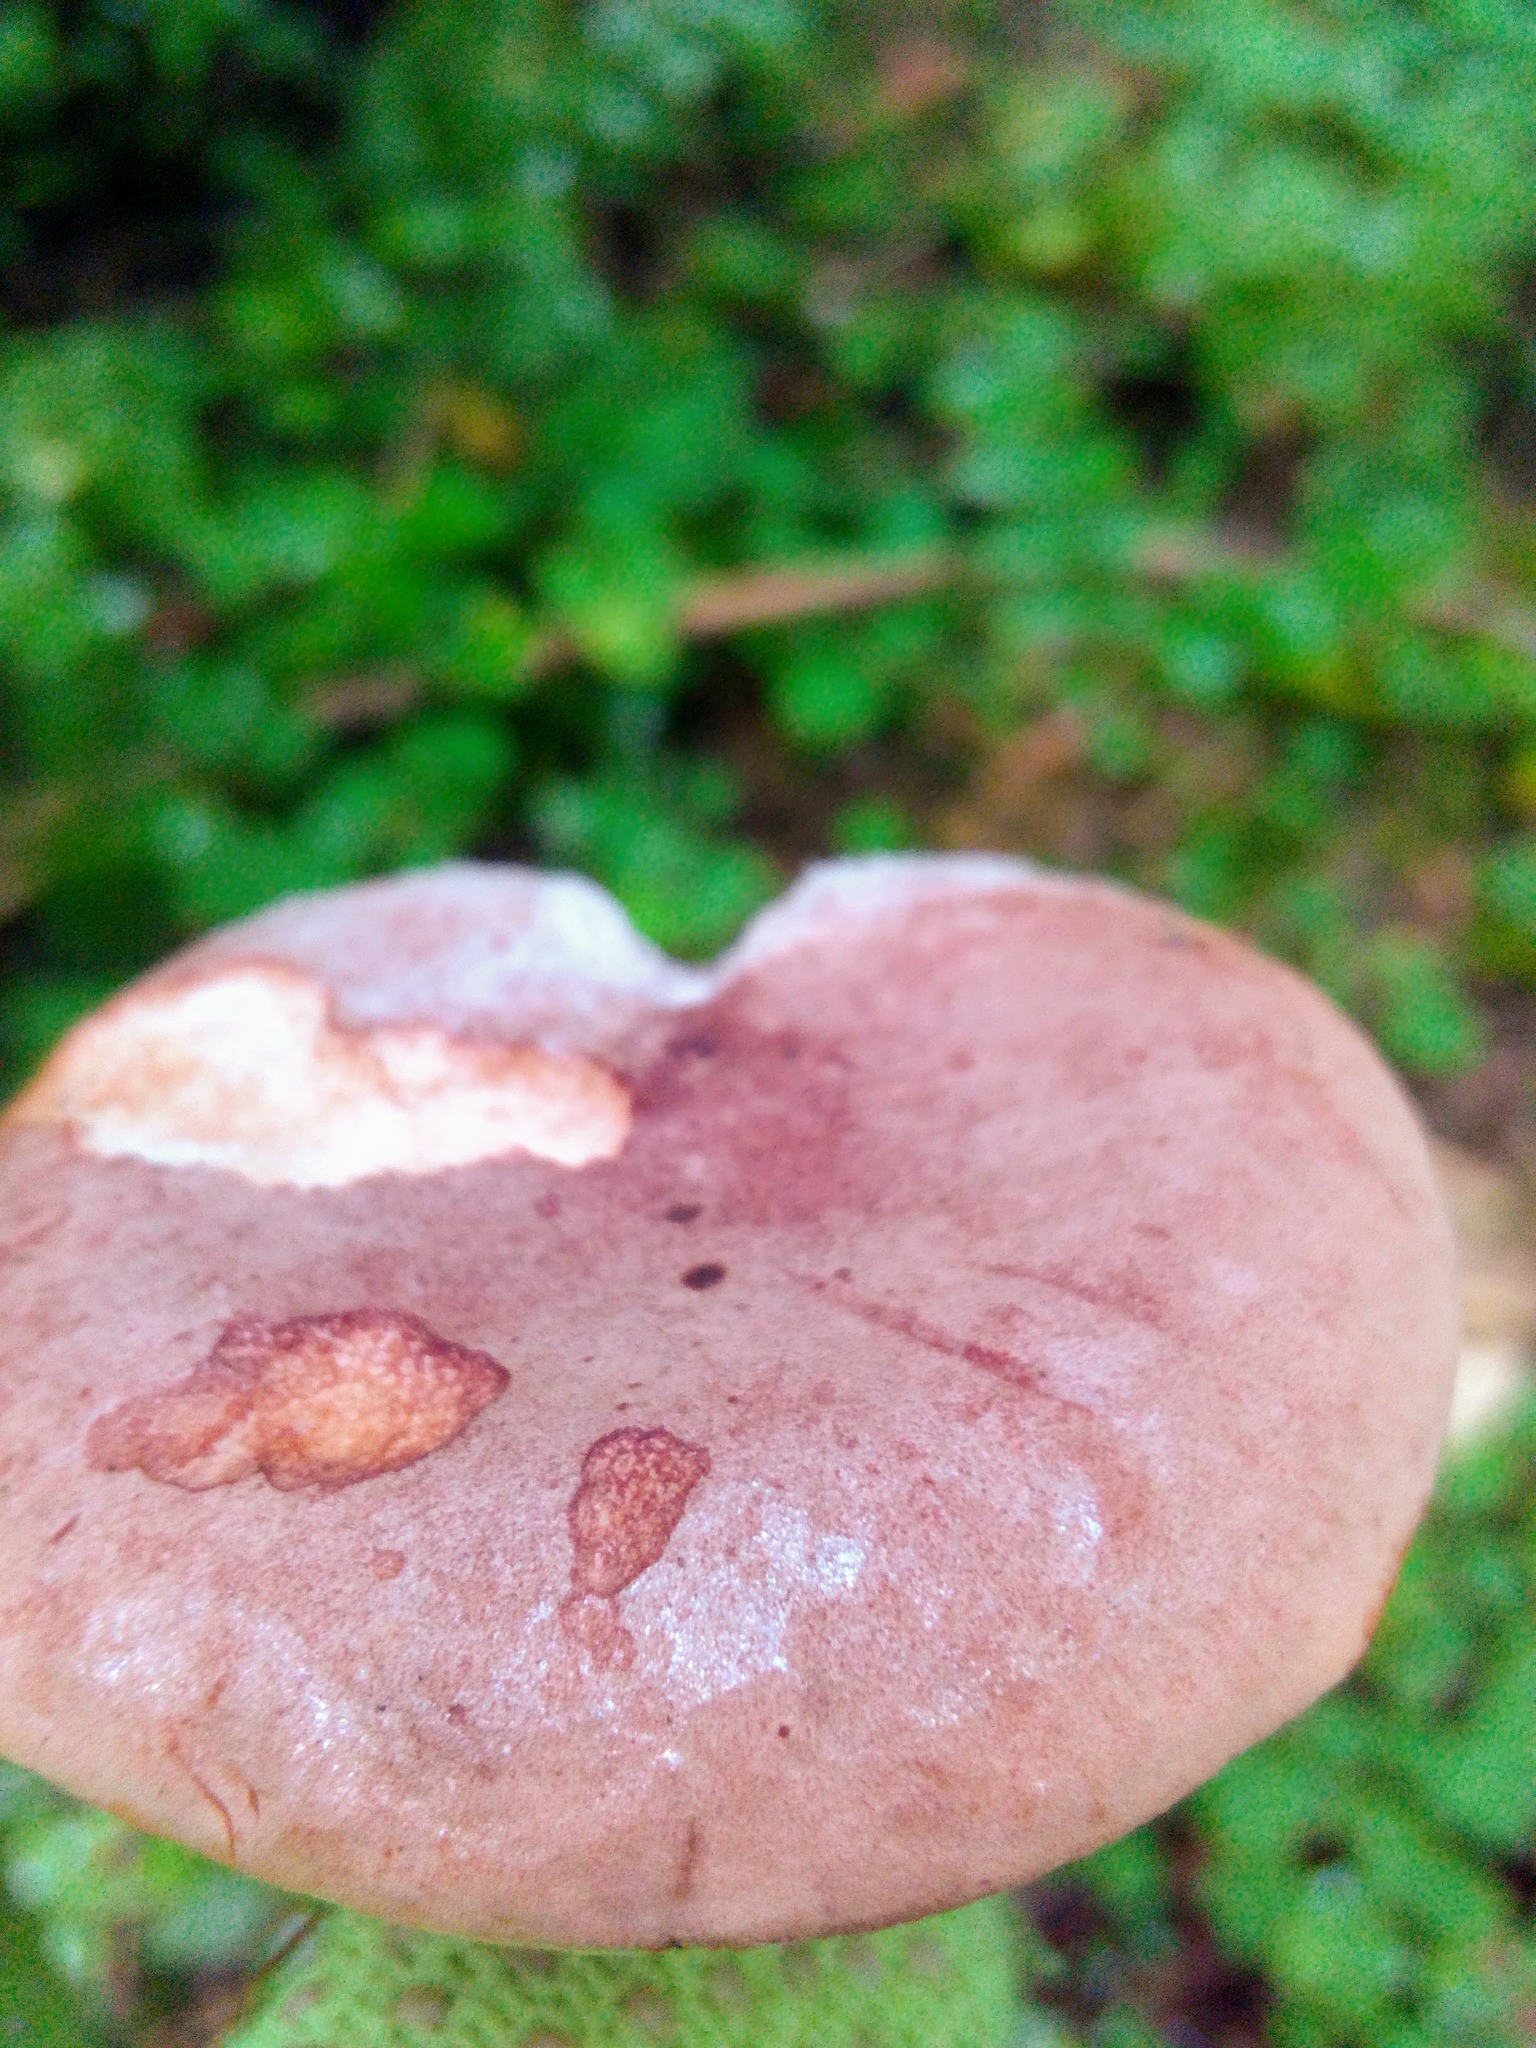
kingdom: Fungi
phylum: Basidiomycota
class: Agaricomycetes
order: Russulales
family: Russulaceae
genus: Lactarius
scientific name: Lactarius rufus
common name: Rufous milk-cap
